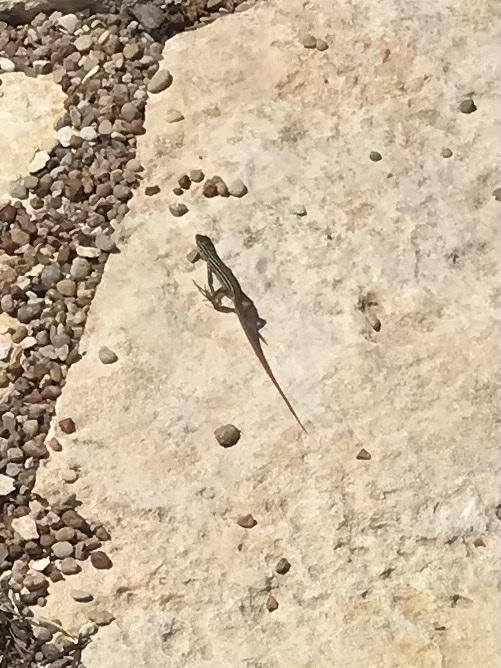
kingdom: Animalia
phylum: Chordata
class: Squamata
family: Teiidae
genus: Aspidoscelis
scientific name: Aspidoscelis gularis
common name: Eastern spotted whiptail
